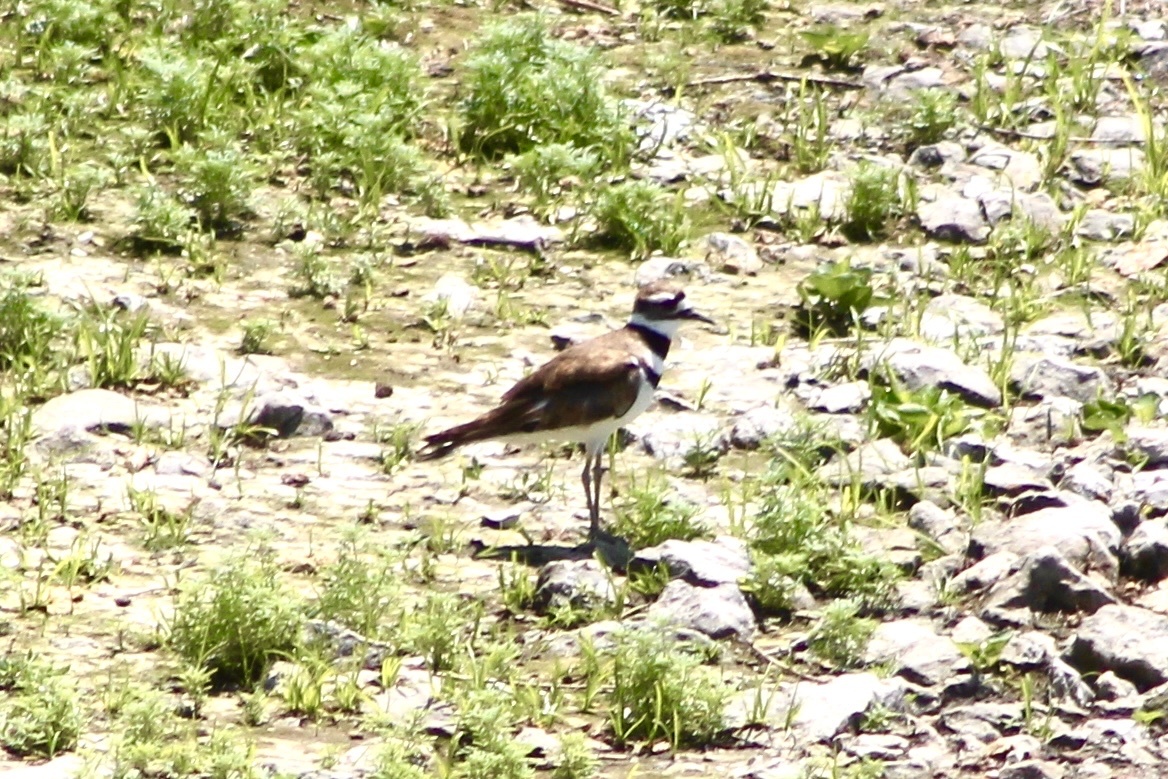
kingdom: Animalia
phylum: Chordata
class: Aves
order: Charadriiformes
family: Charadriidae
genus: Charadrius
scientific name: Charadrius vociferus
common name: Killdeer
